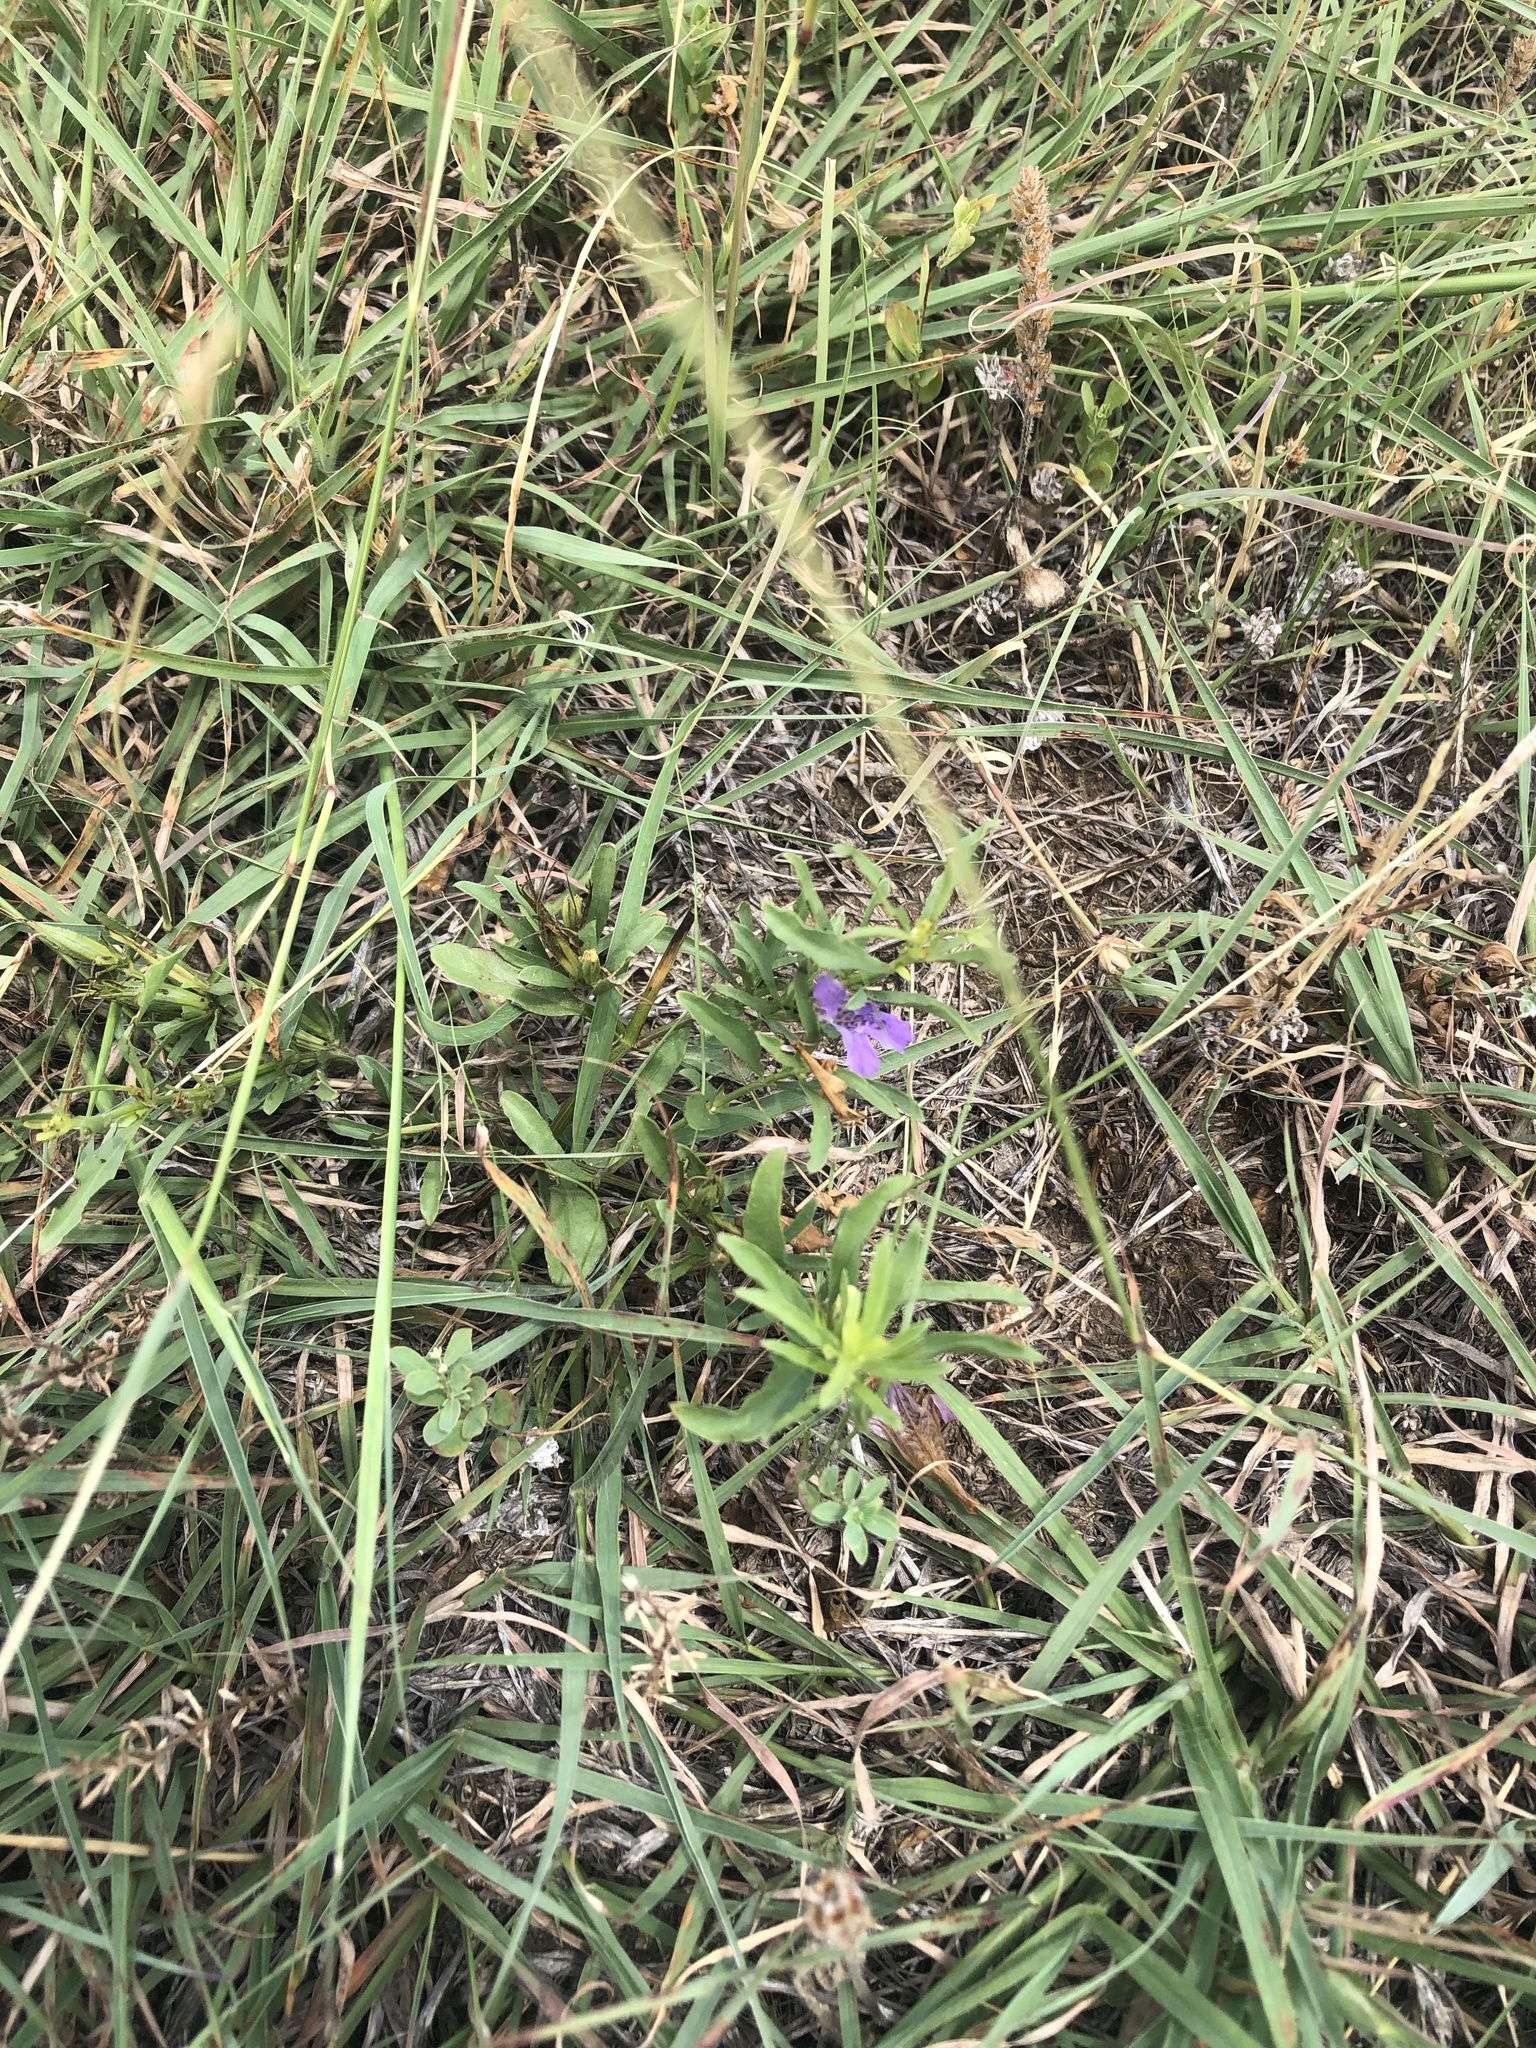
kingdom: Plantae
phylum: Tracheophyta
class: Magnoliopsida
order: Lamiales
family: Acanthaceae
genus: Dyschoriste
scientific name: Dyschoriste linearis
